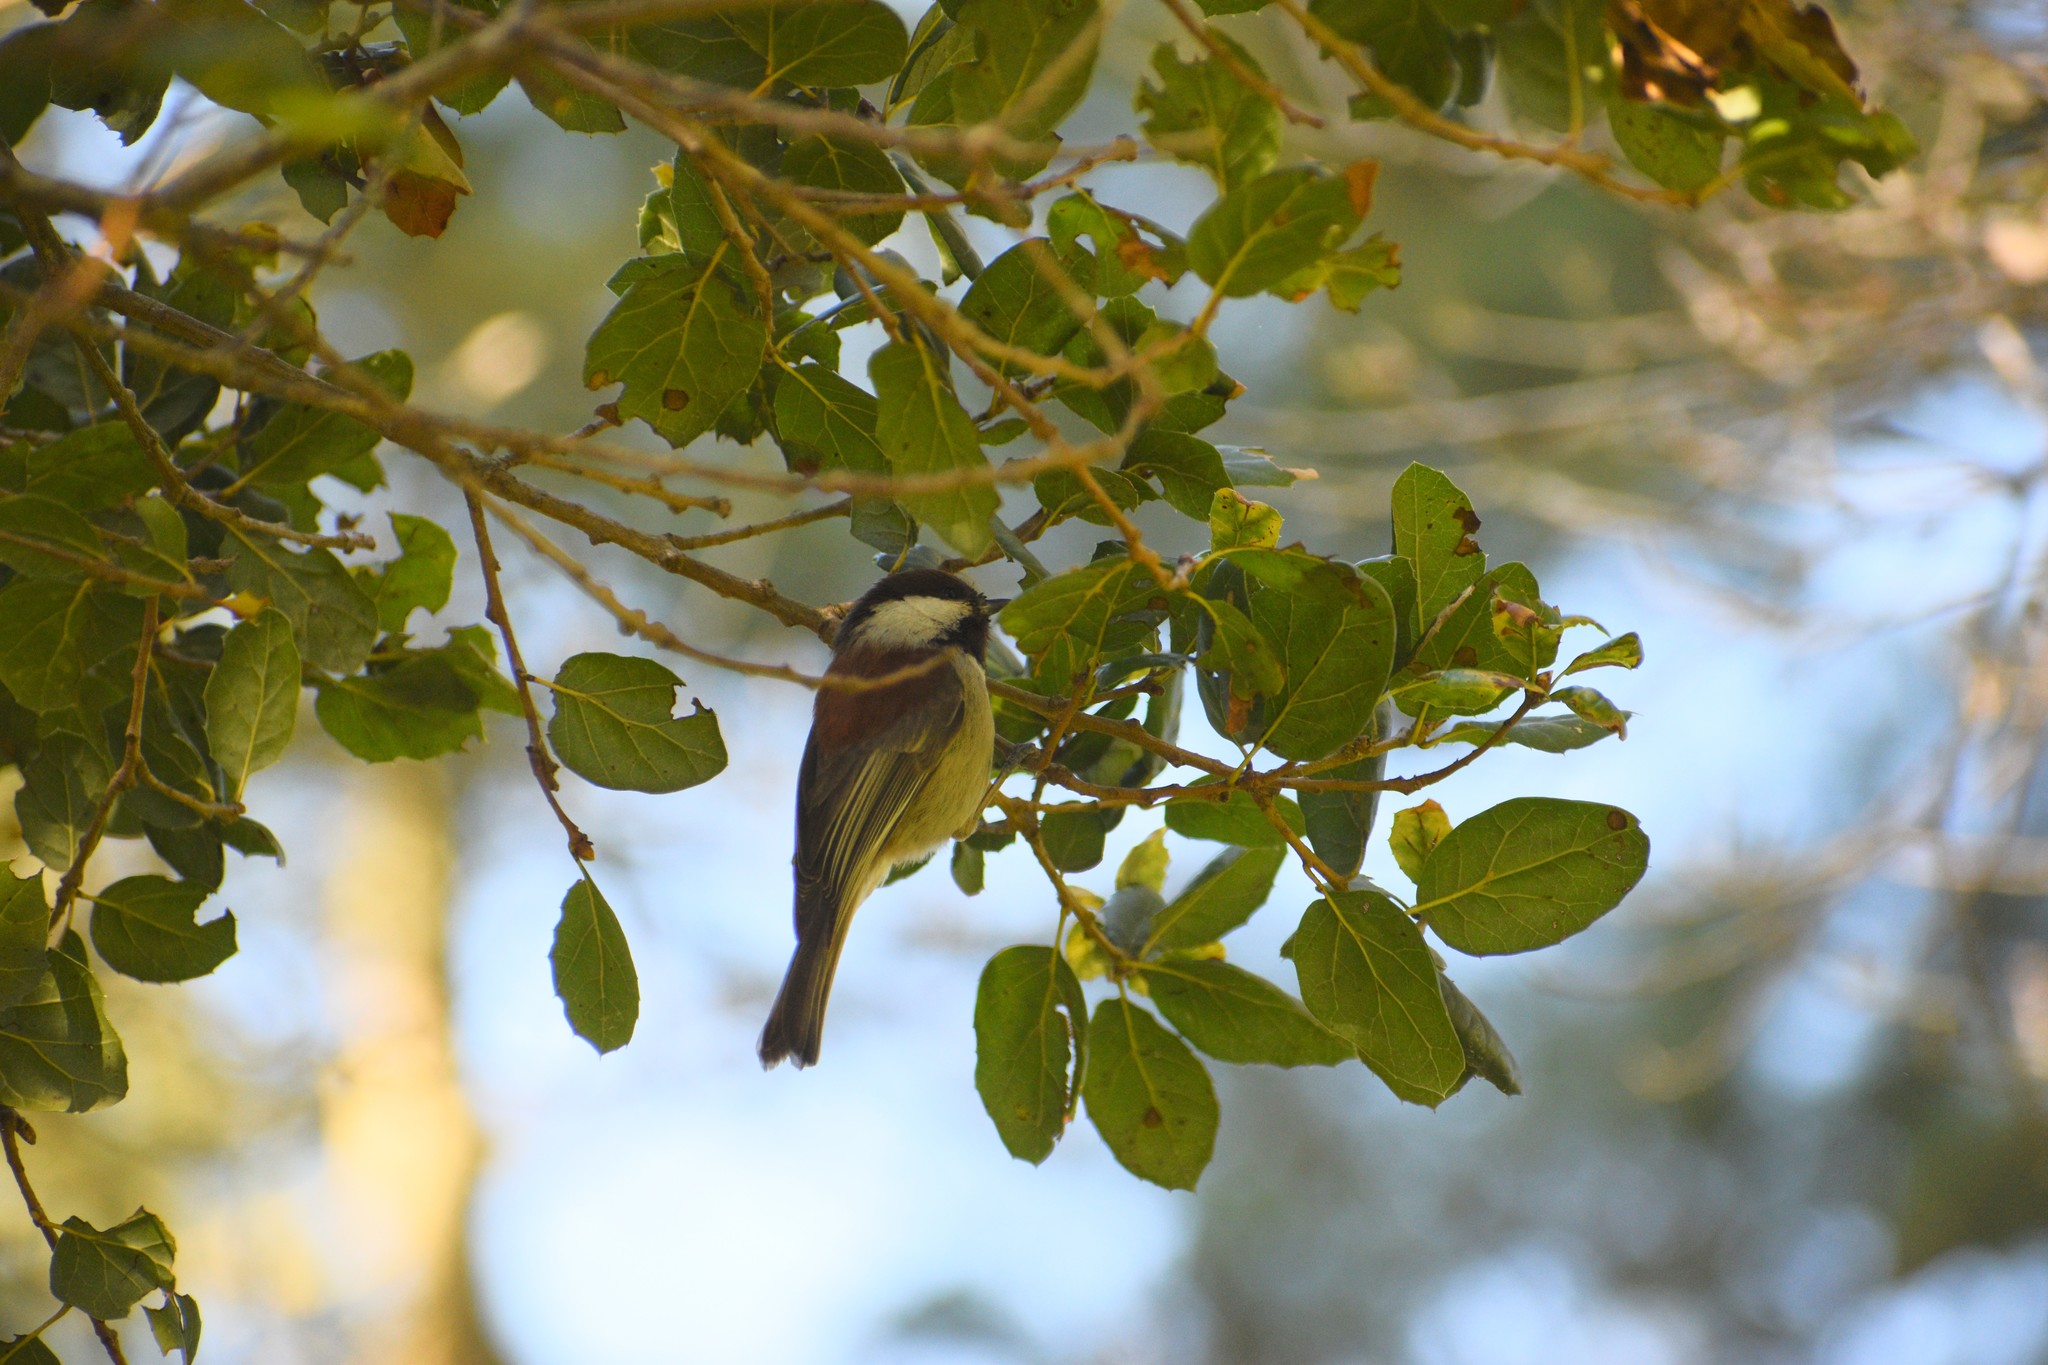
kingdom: Animalia
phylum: Chordata
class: Aves
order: Passeriformes
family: Paridae
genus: Poecile
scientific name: Poecile rufescens
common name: Chestnut-backed chickadee
